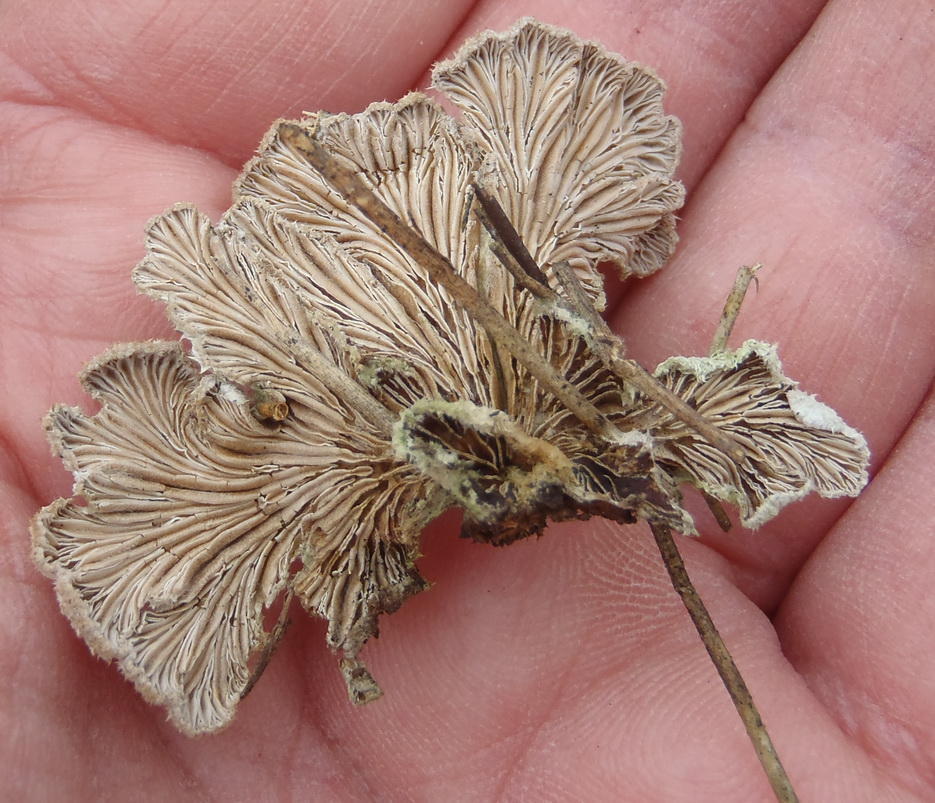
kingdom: Fungi
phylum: Basidiomycota
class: Agaricomycetes
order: Agaricales
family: Schizophyllaceae
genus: Schizophyllum
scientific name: Schizophyllum commune
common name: Common porecrust
